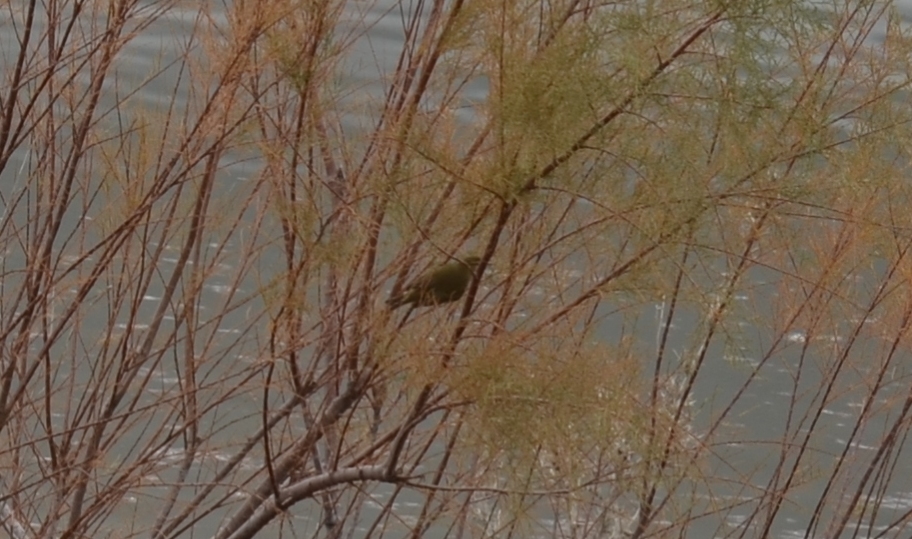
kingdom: Animalia
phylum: Chordata
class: Aves
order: Passeriformes
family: Phylloscopidae
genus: Phylloscopus
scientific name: Phylloscopus collybita
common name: Common chiffchaff
